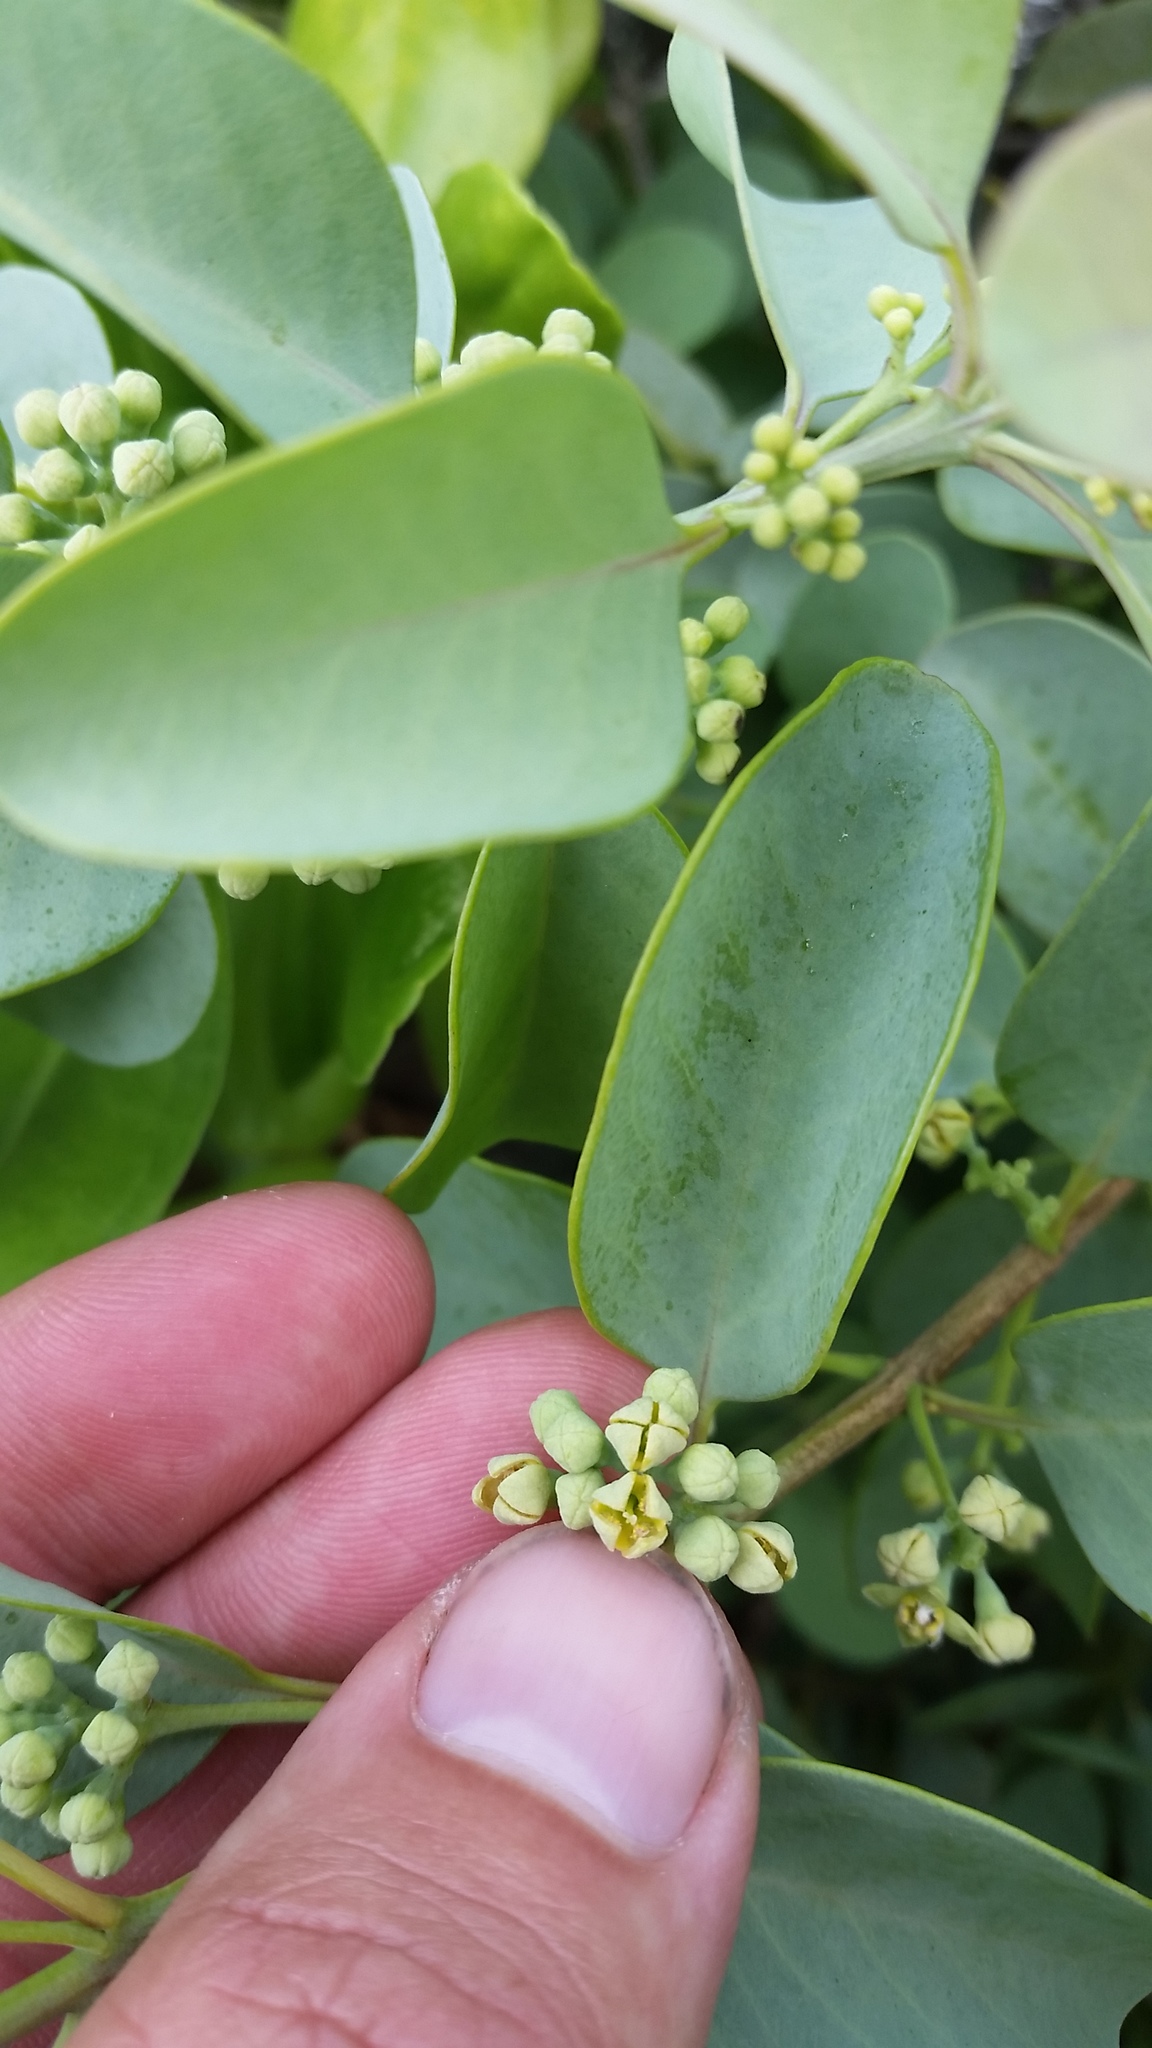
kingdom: Plantae
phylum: Tracheophyta
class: Magnoliopsida
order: Santalales
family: Santalaceae
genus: Santalum
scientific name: Santalum ellipticum
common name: Coast sandalwood
